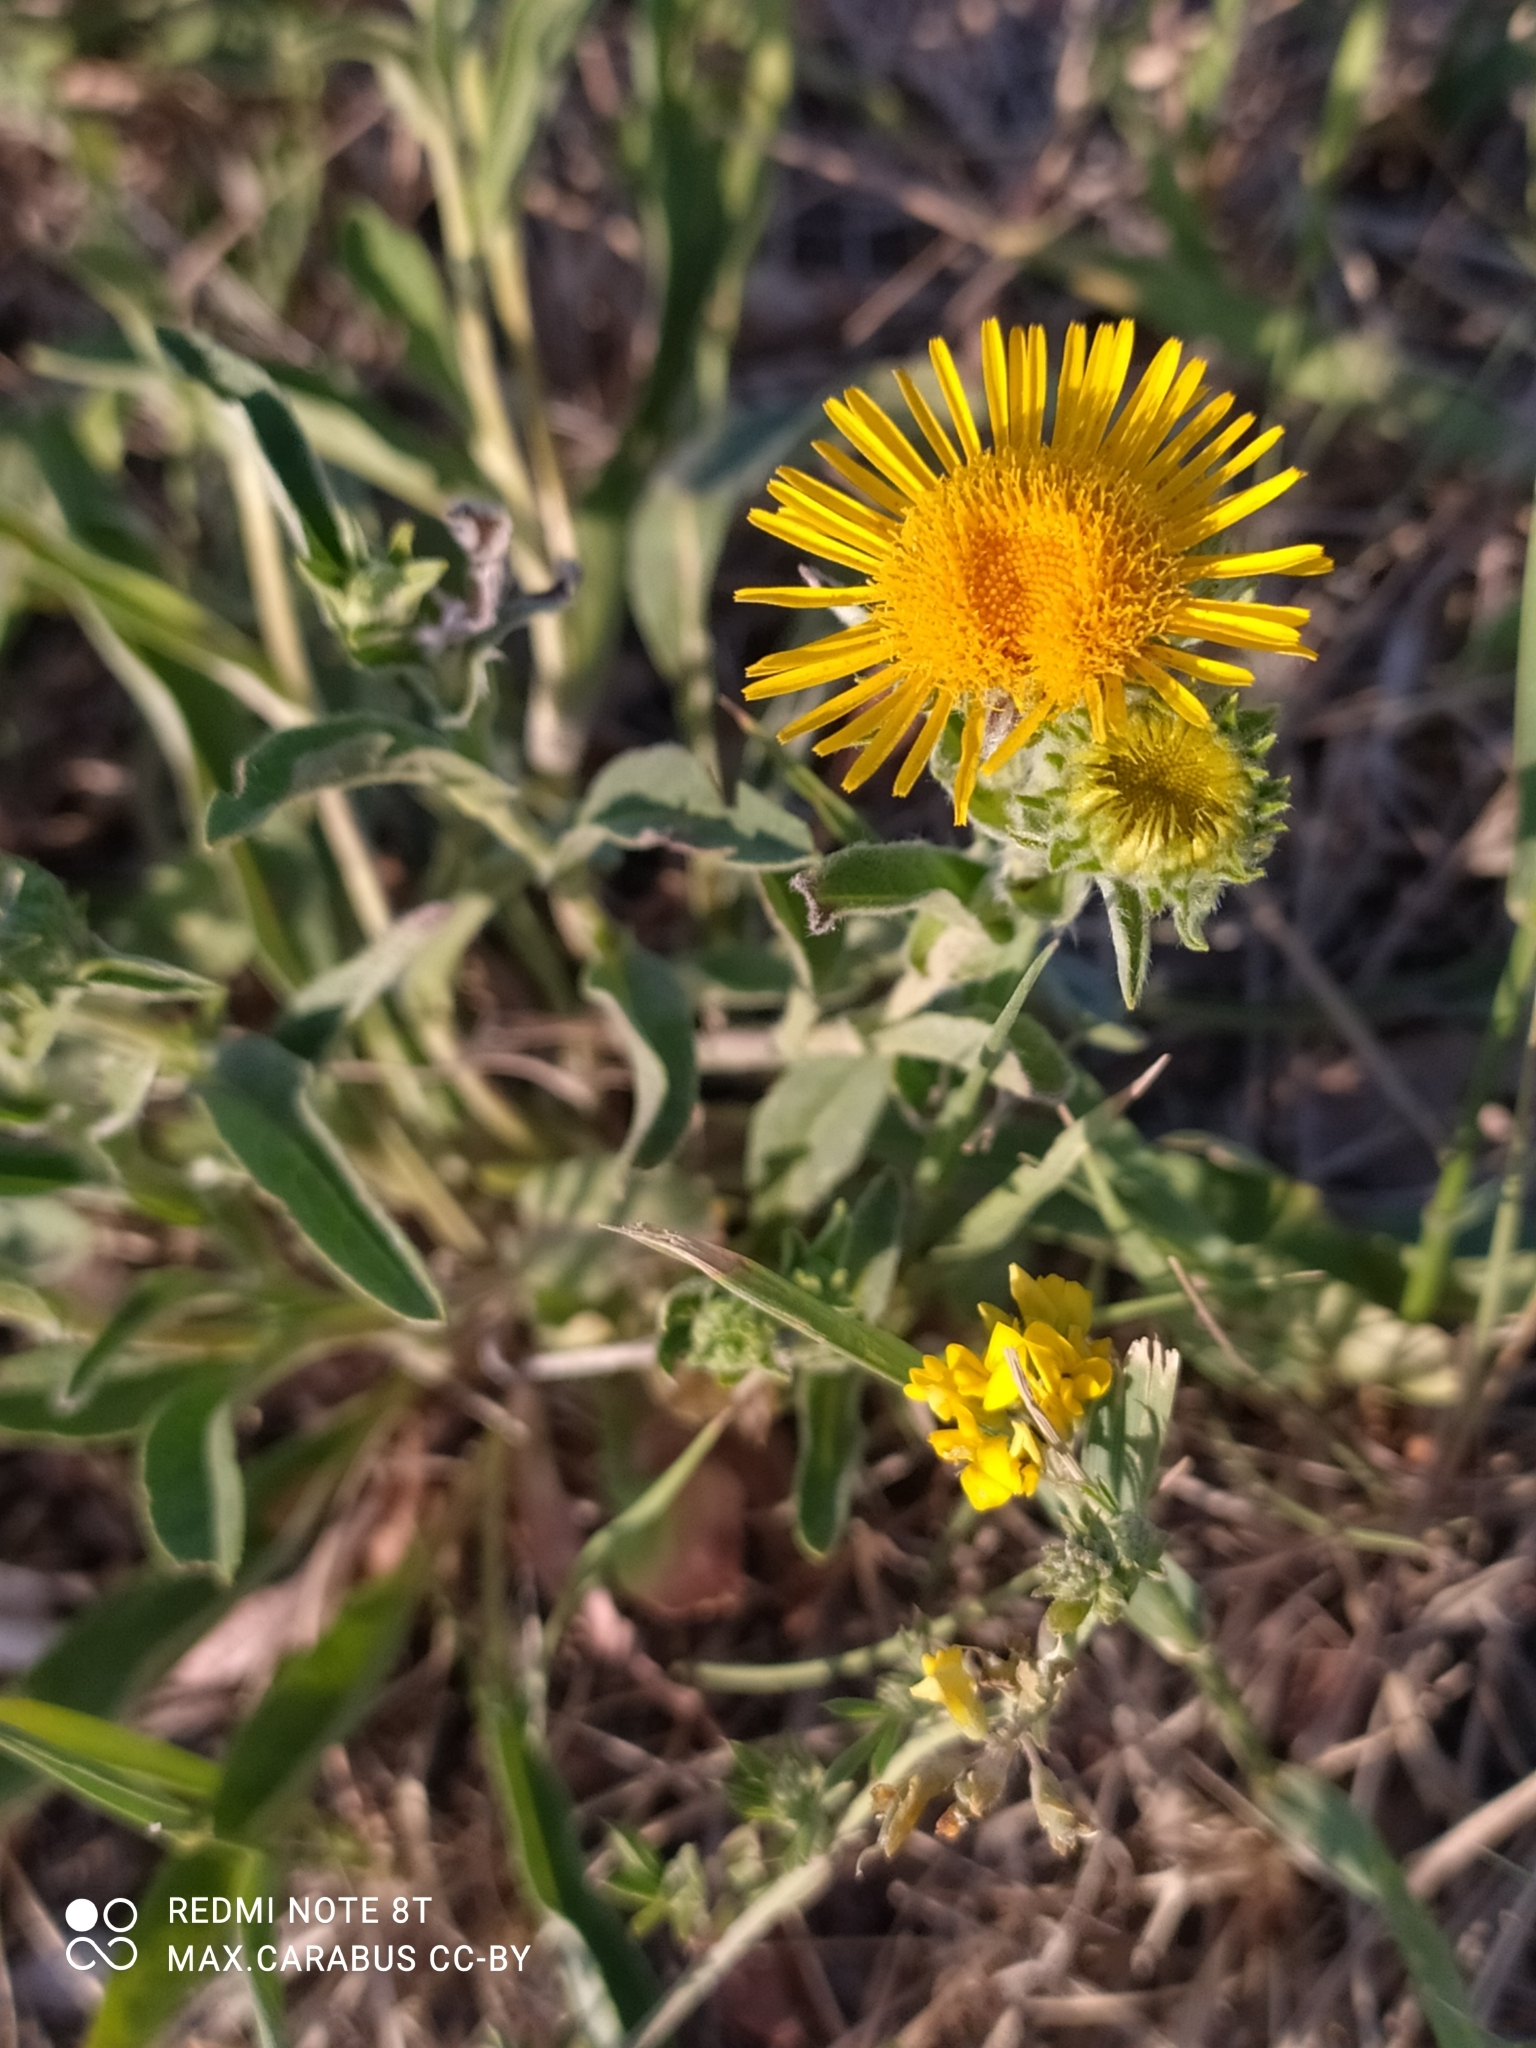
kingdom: Plantae
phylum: Tracheophyta
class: Magnoliopsida
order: Asterales
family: Asteraceae
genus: Pentanema
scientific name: Pentanema britannicum
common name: British elecampane
